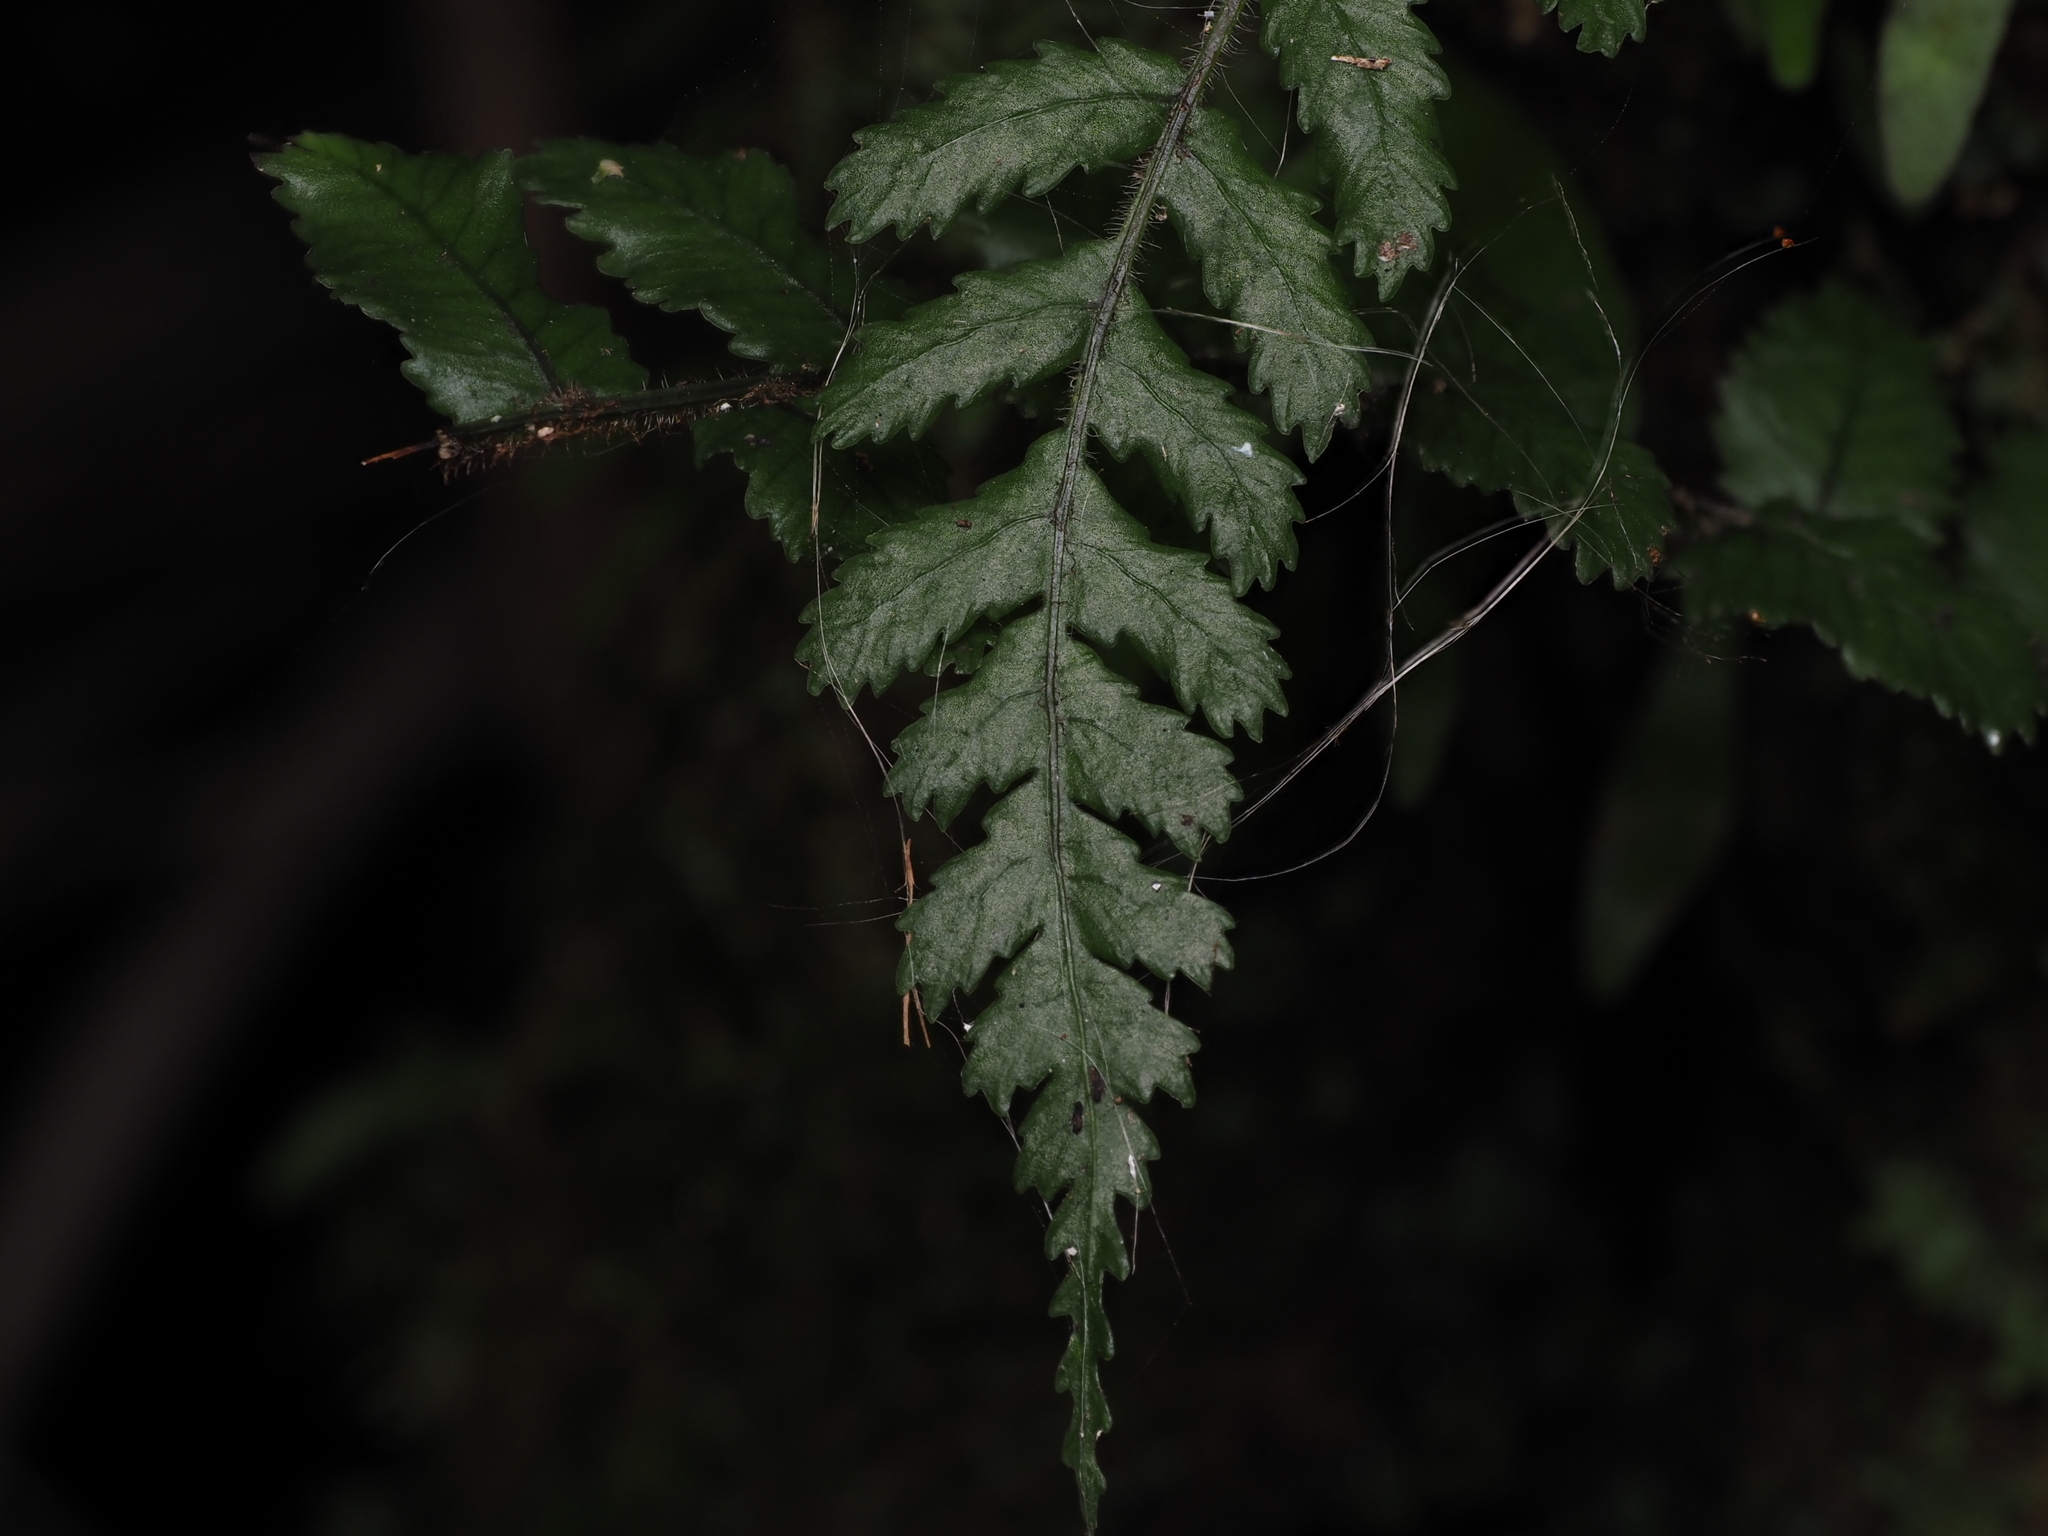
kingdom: Plantae
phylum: Tracheophyta
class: Polypodiopsida
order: Polypodiales
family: Blechnaceae
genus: Icarus
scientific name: Icarus filiformis
